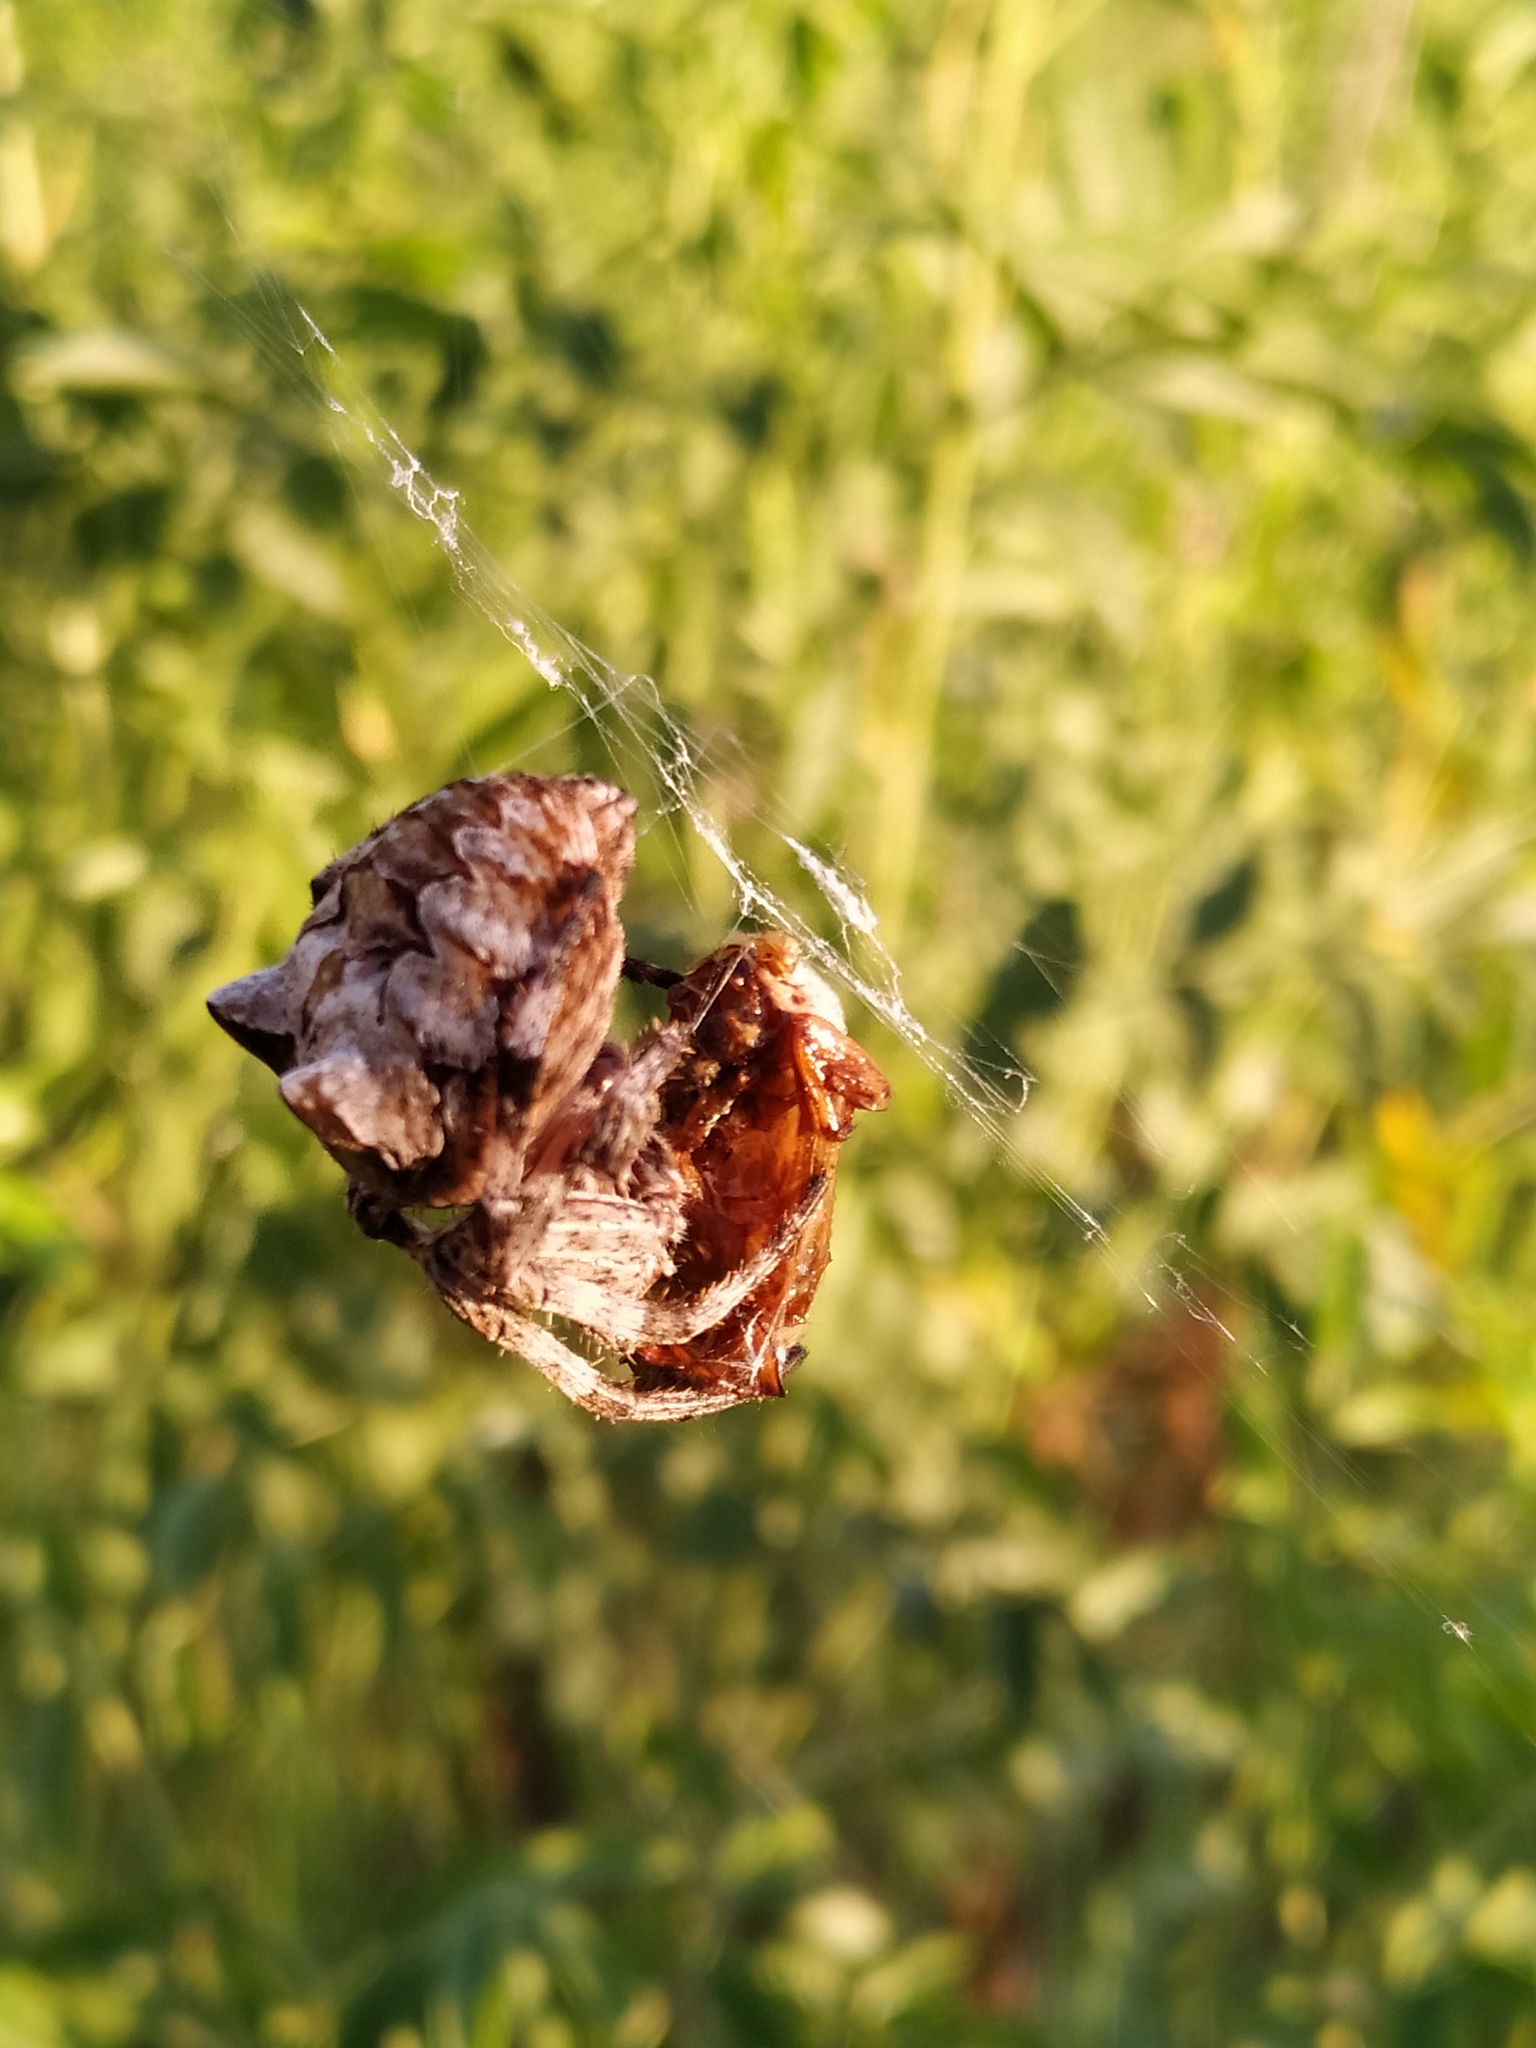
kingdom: Animalia
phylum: Arthropoda
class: Arachnida
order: Araneae
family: Araneidae
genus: Araneus
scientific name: Araneus grossus
